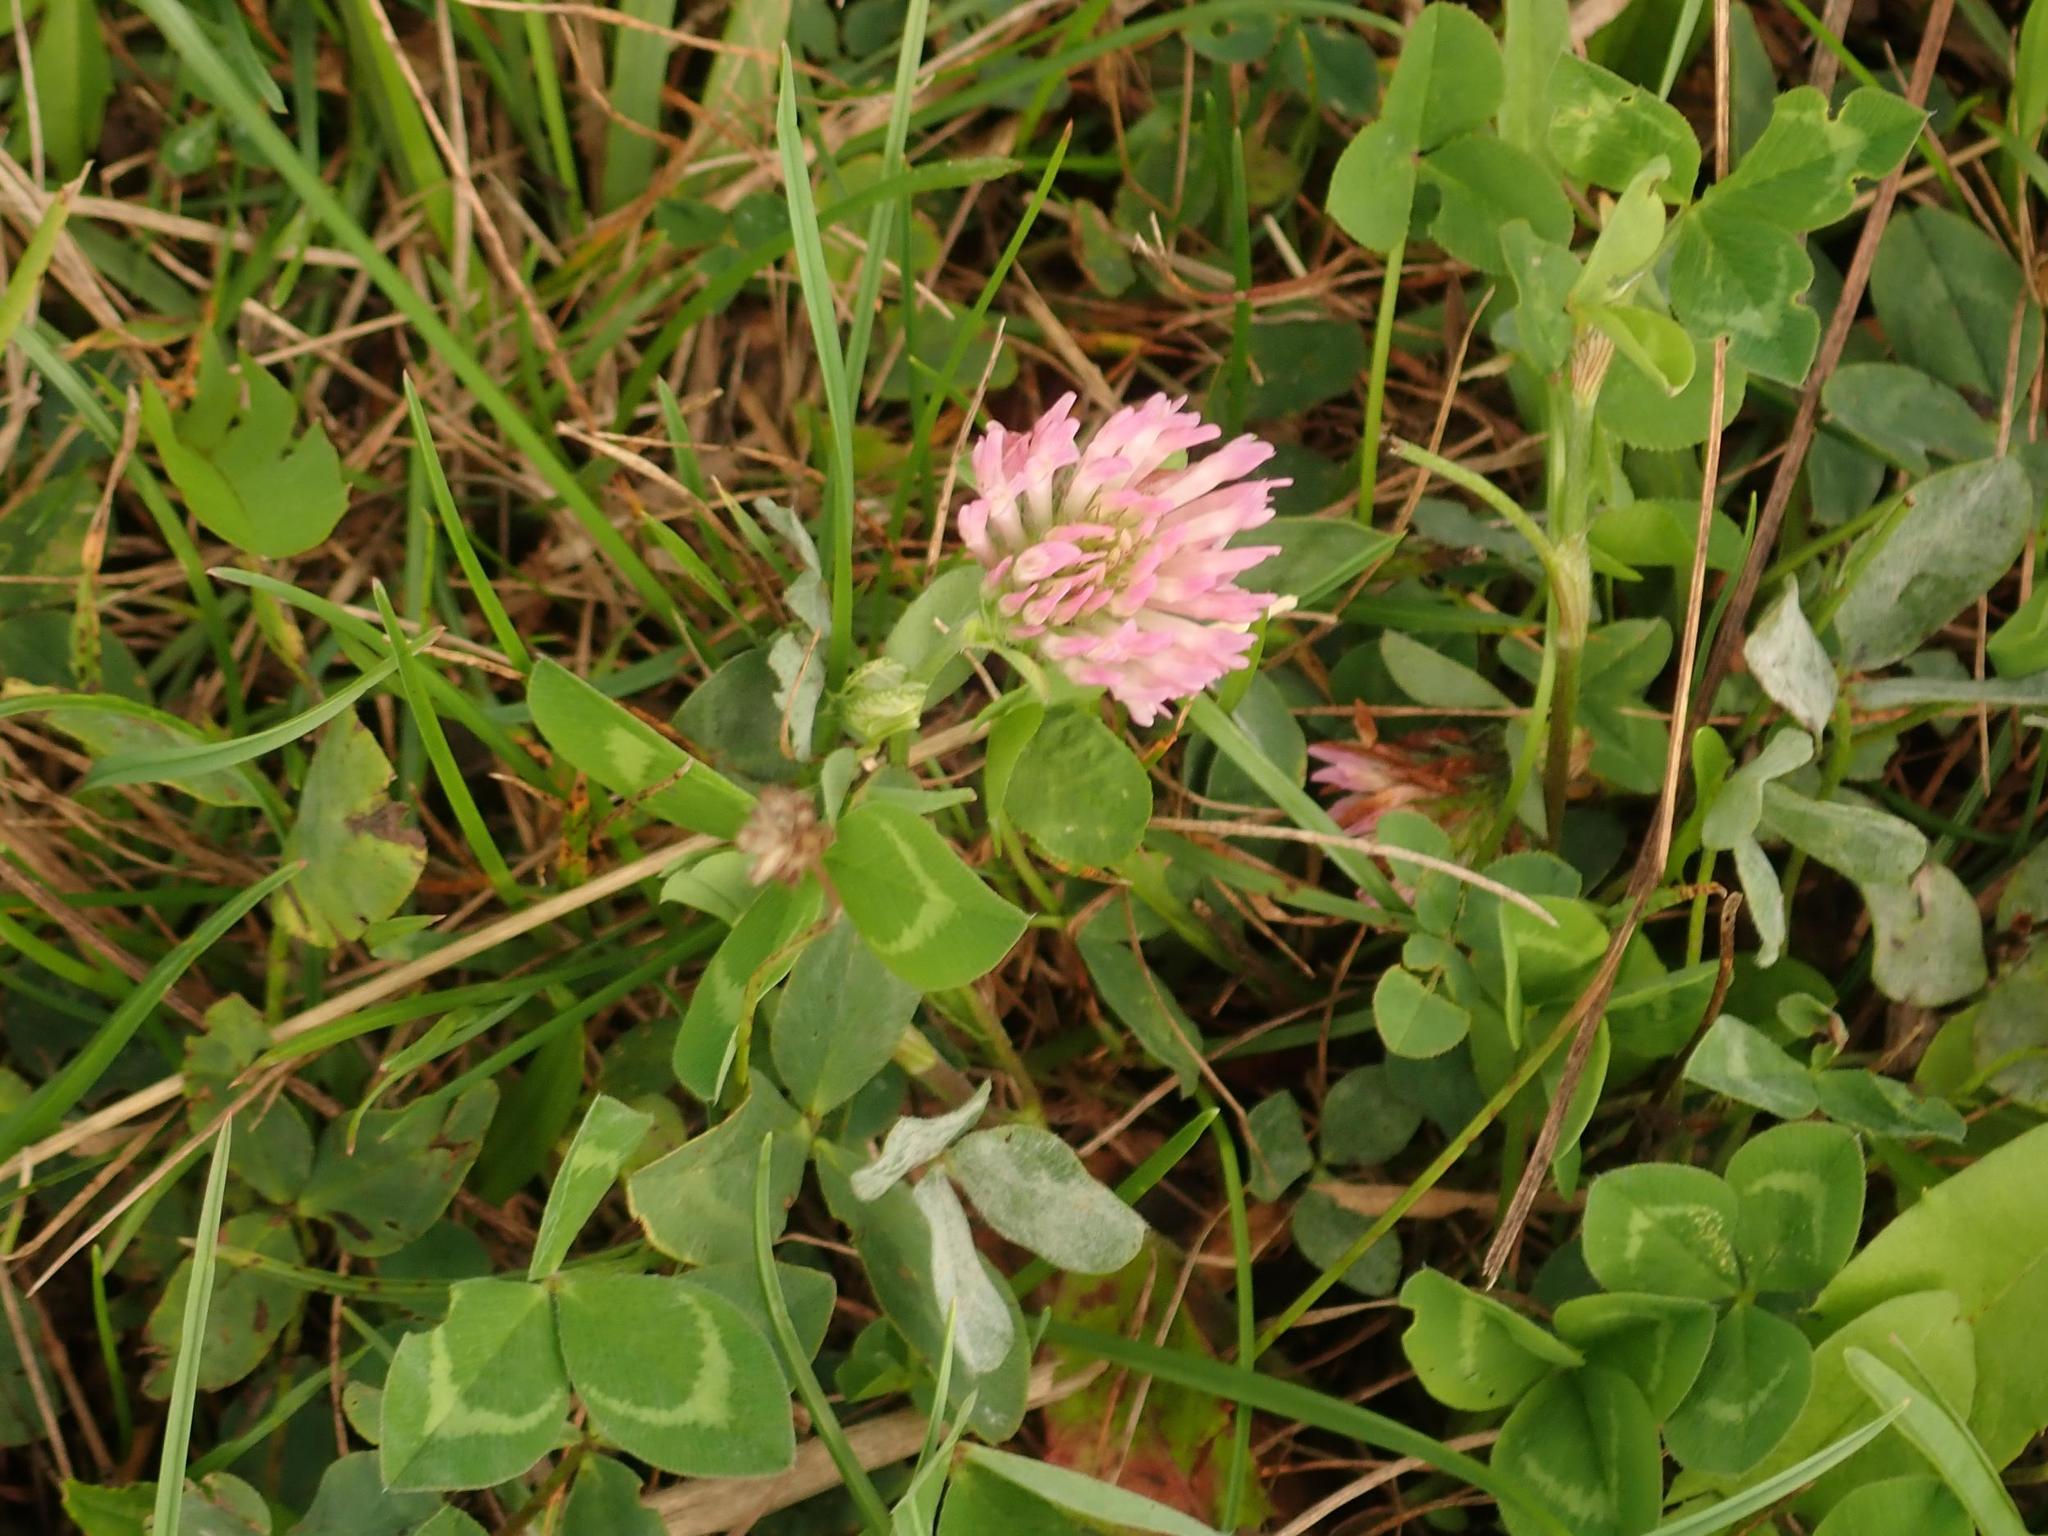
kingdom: Plantae
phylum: Tracheophyta
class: Magnoliopsida
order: Fabales
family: Fabaceae
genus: Trifolium
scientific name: Trifolium pratense
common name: Red clover
